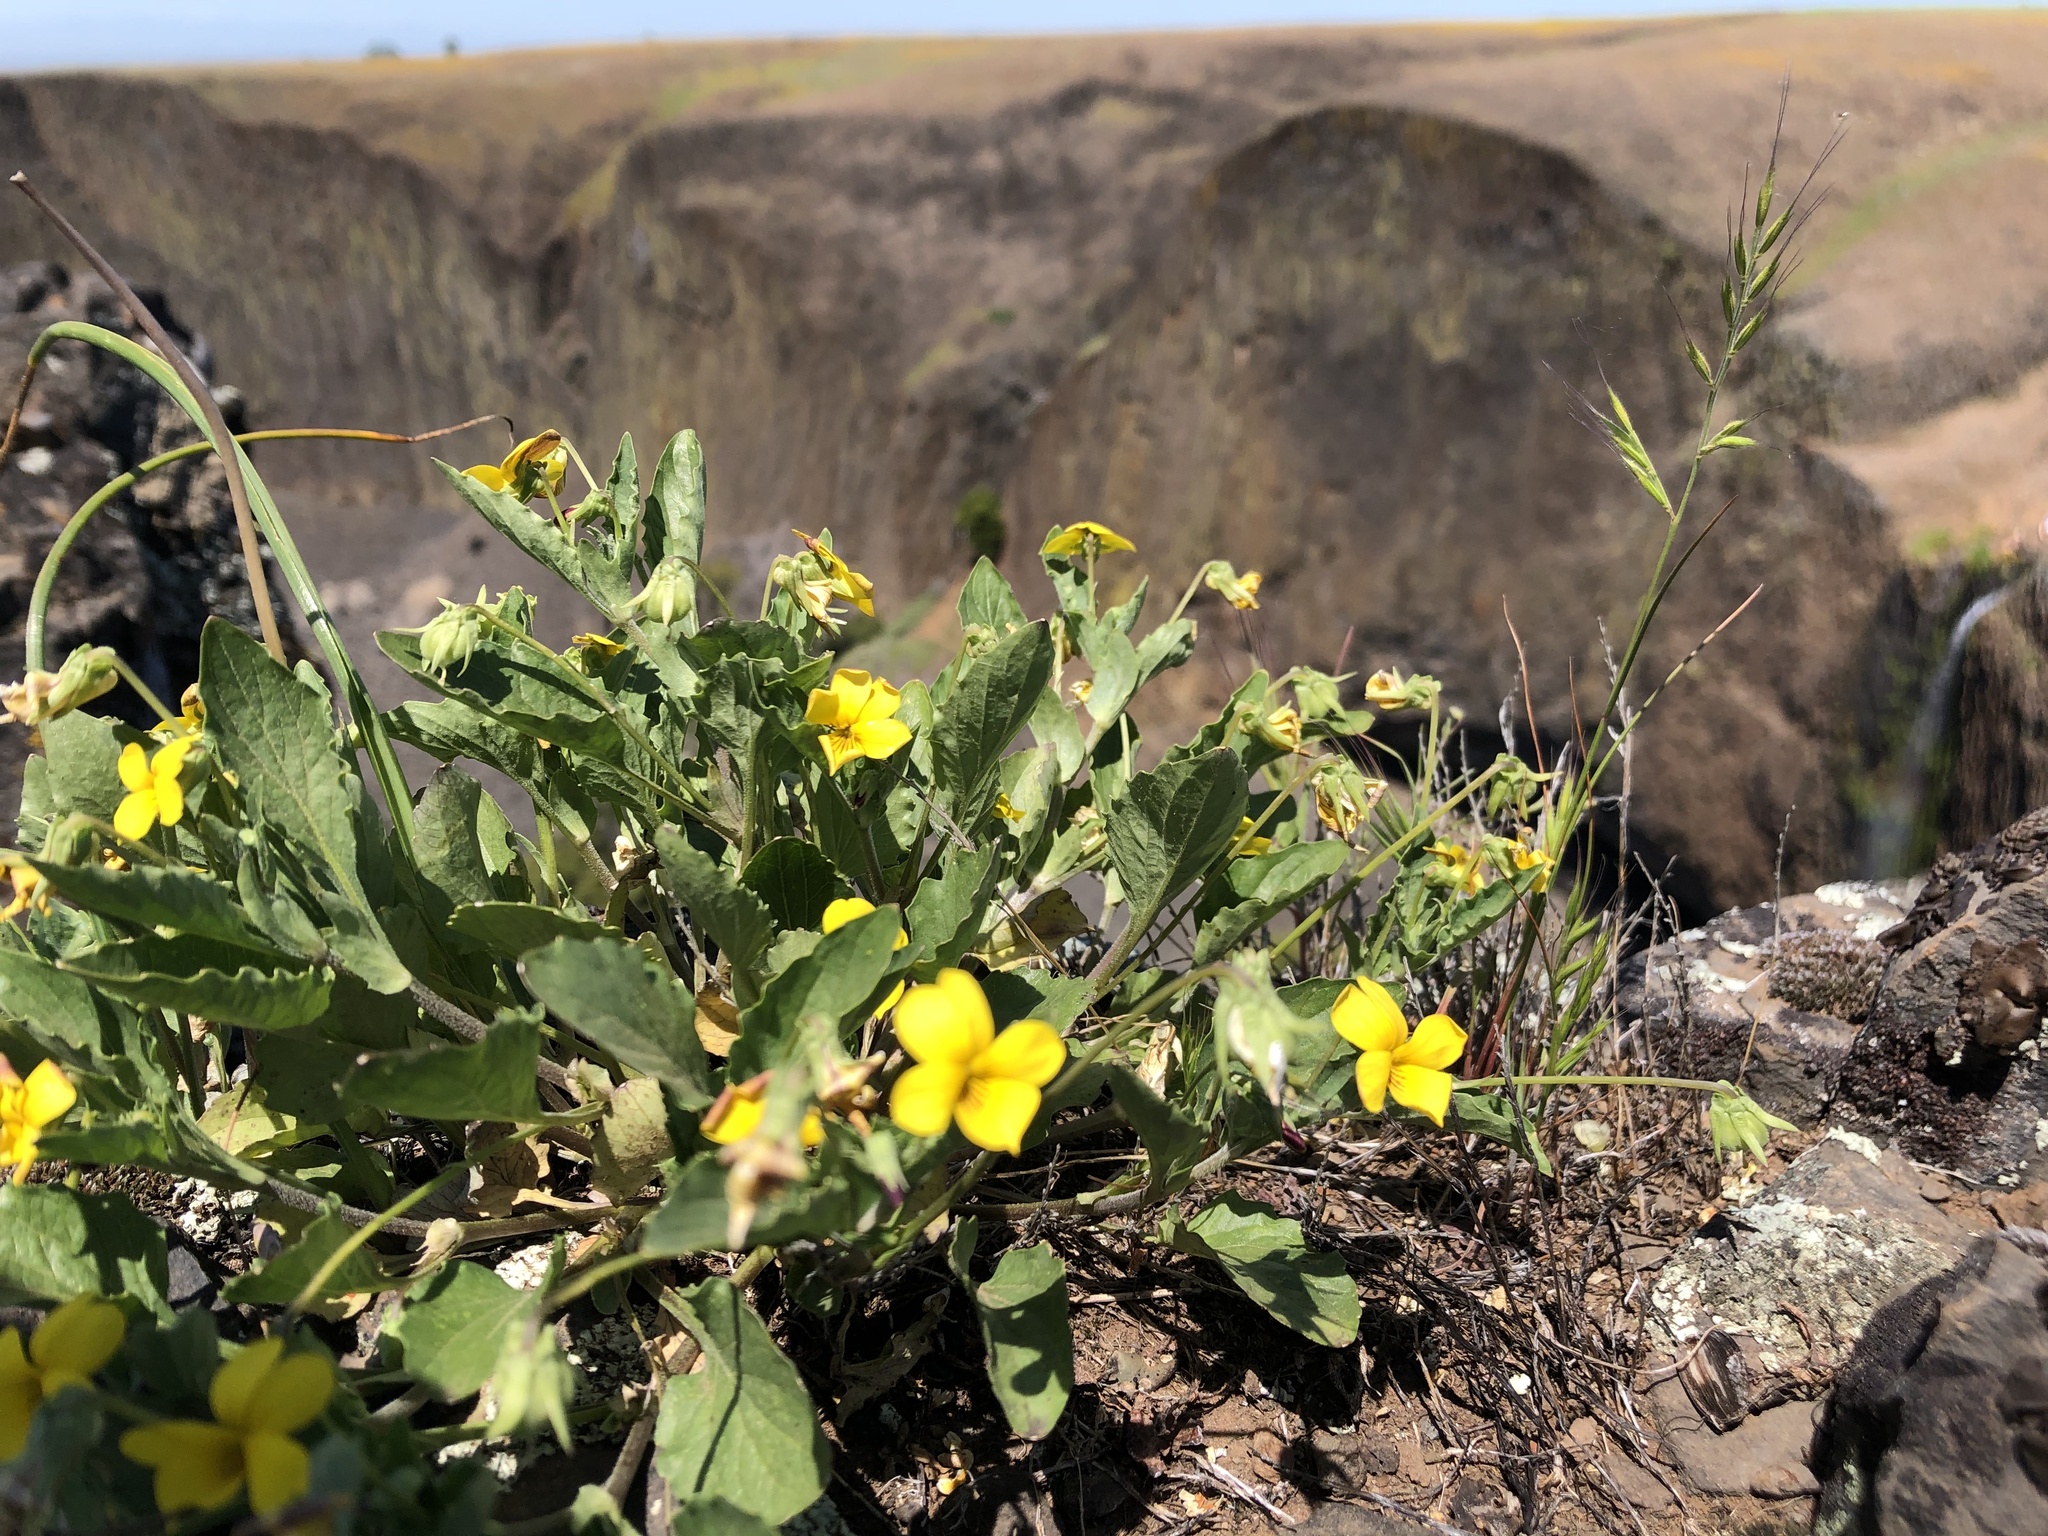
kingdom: Plantae
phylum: Tracheophyta
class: Magnoliopsida
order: Malpighiales
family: Violaceae
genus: Viola
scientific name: Viola purpurea
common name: Pine violet
